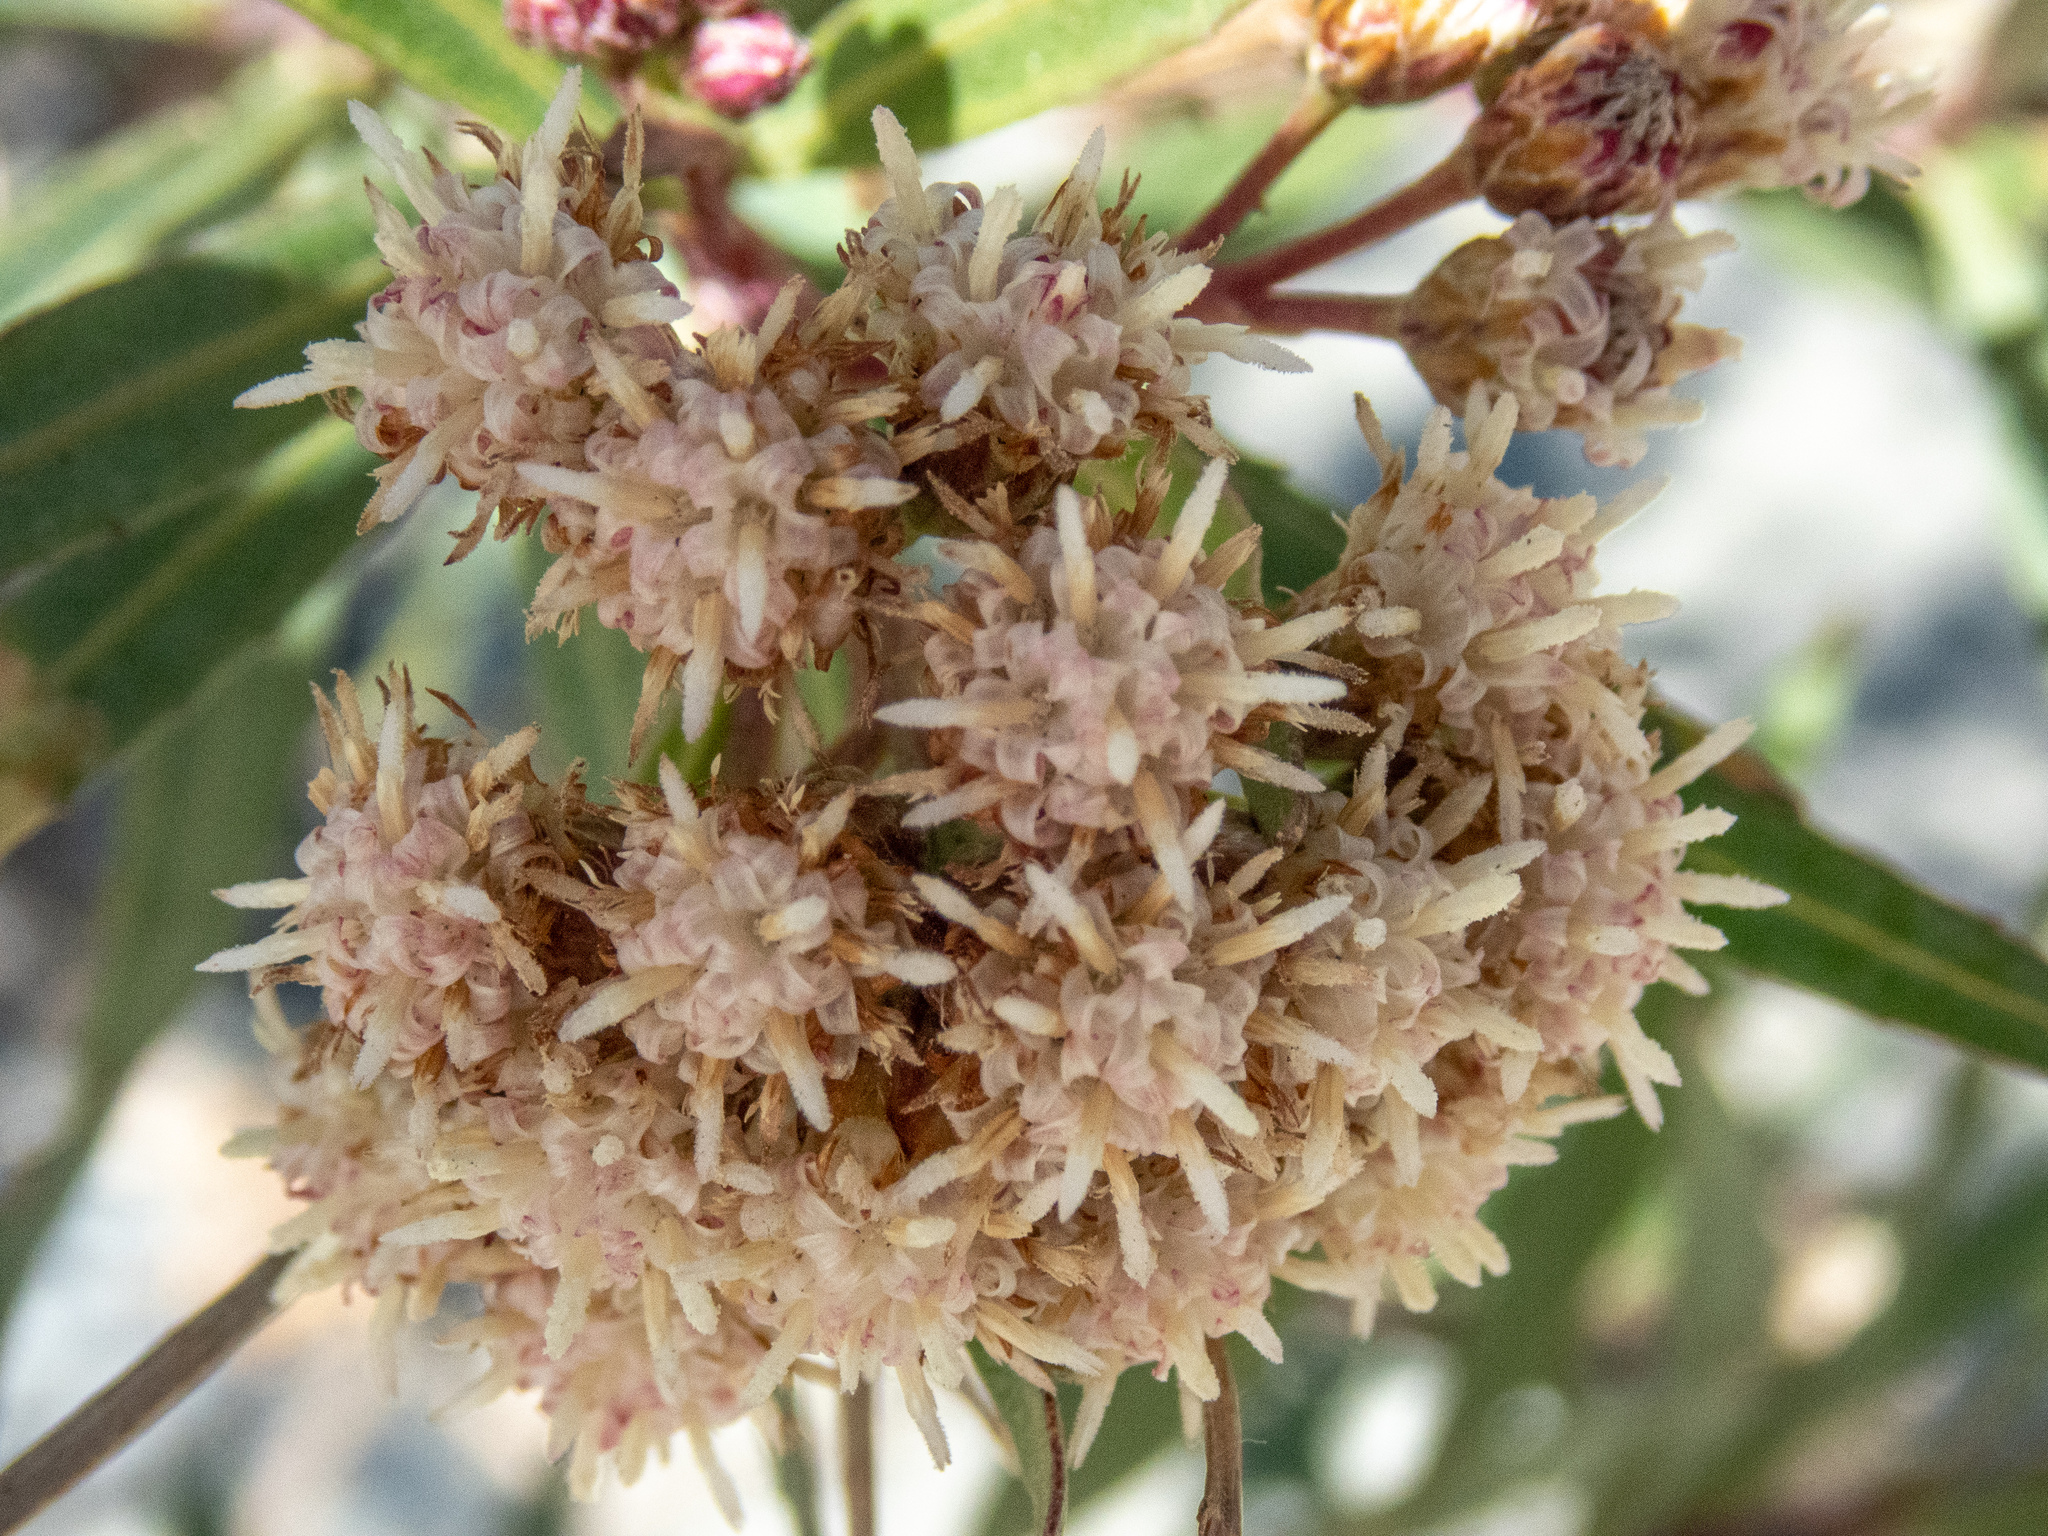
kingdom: Plantae
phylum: Tracheophyta
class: Magnoliopsida
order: Asterales
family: Asteraceae
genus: Baccharis
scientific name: Baccharis salicifolia
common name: Sticky baccharis
